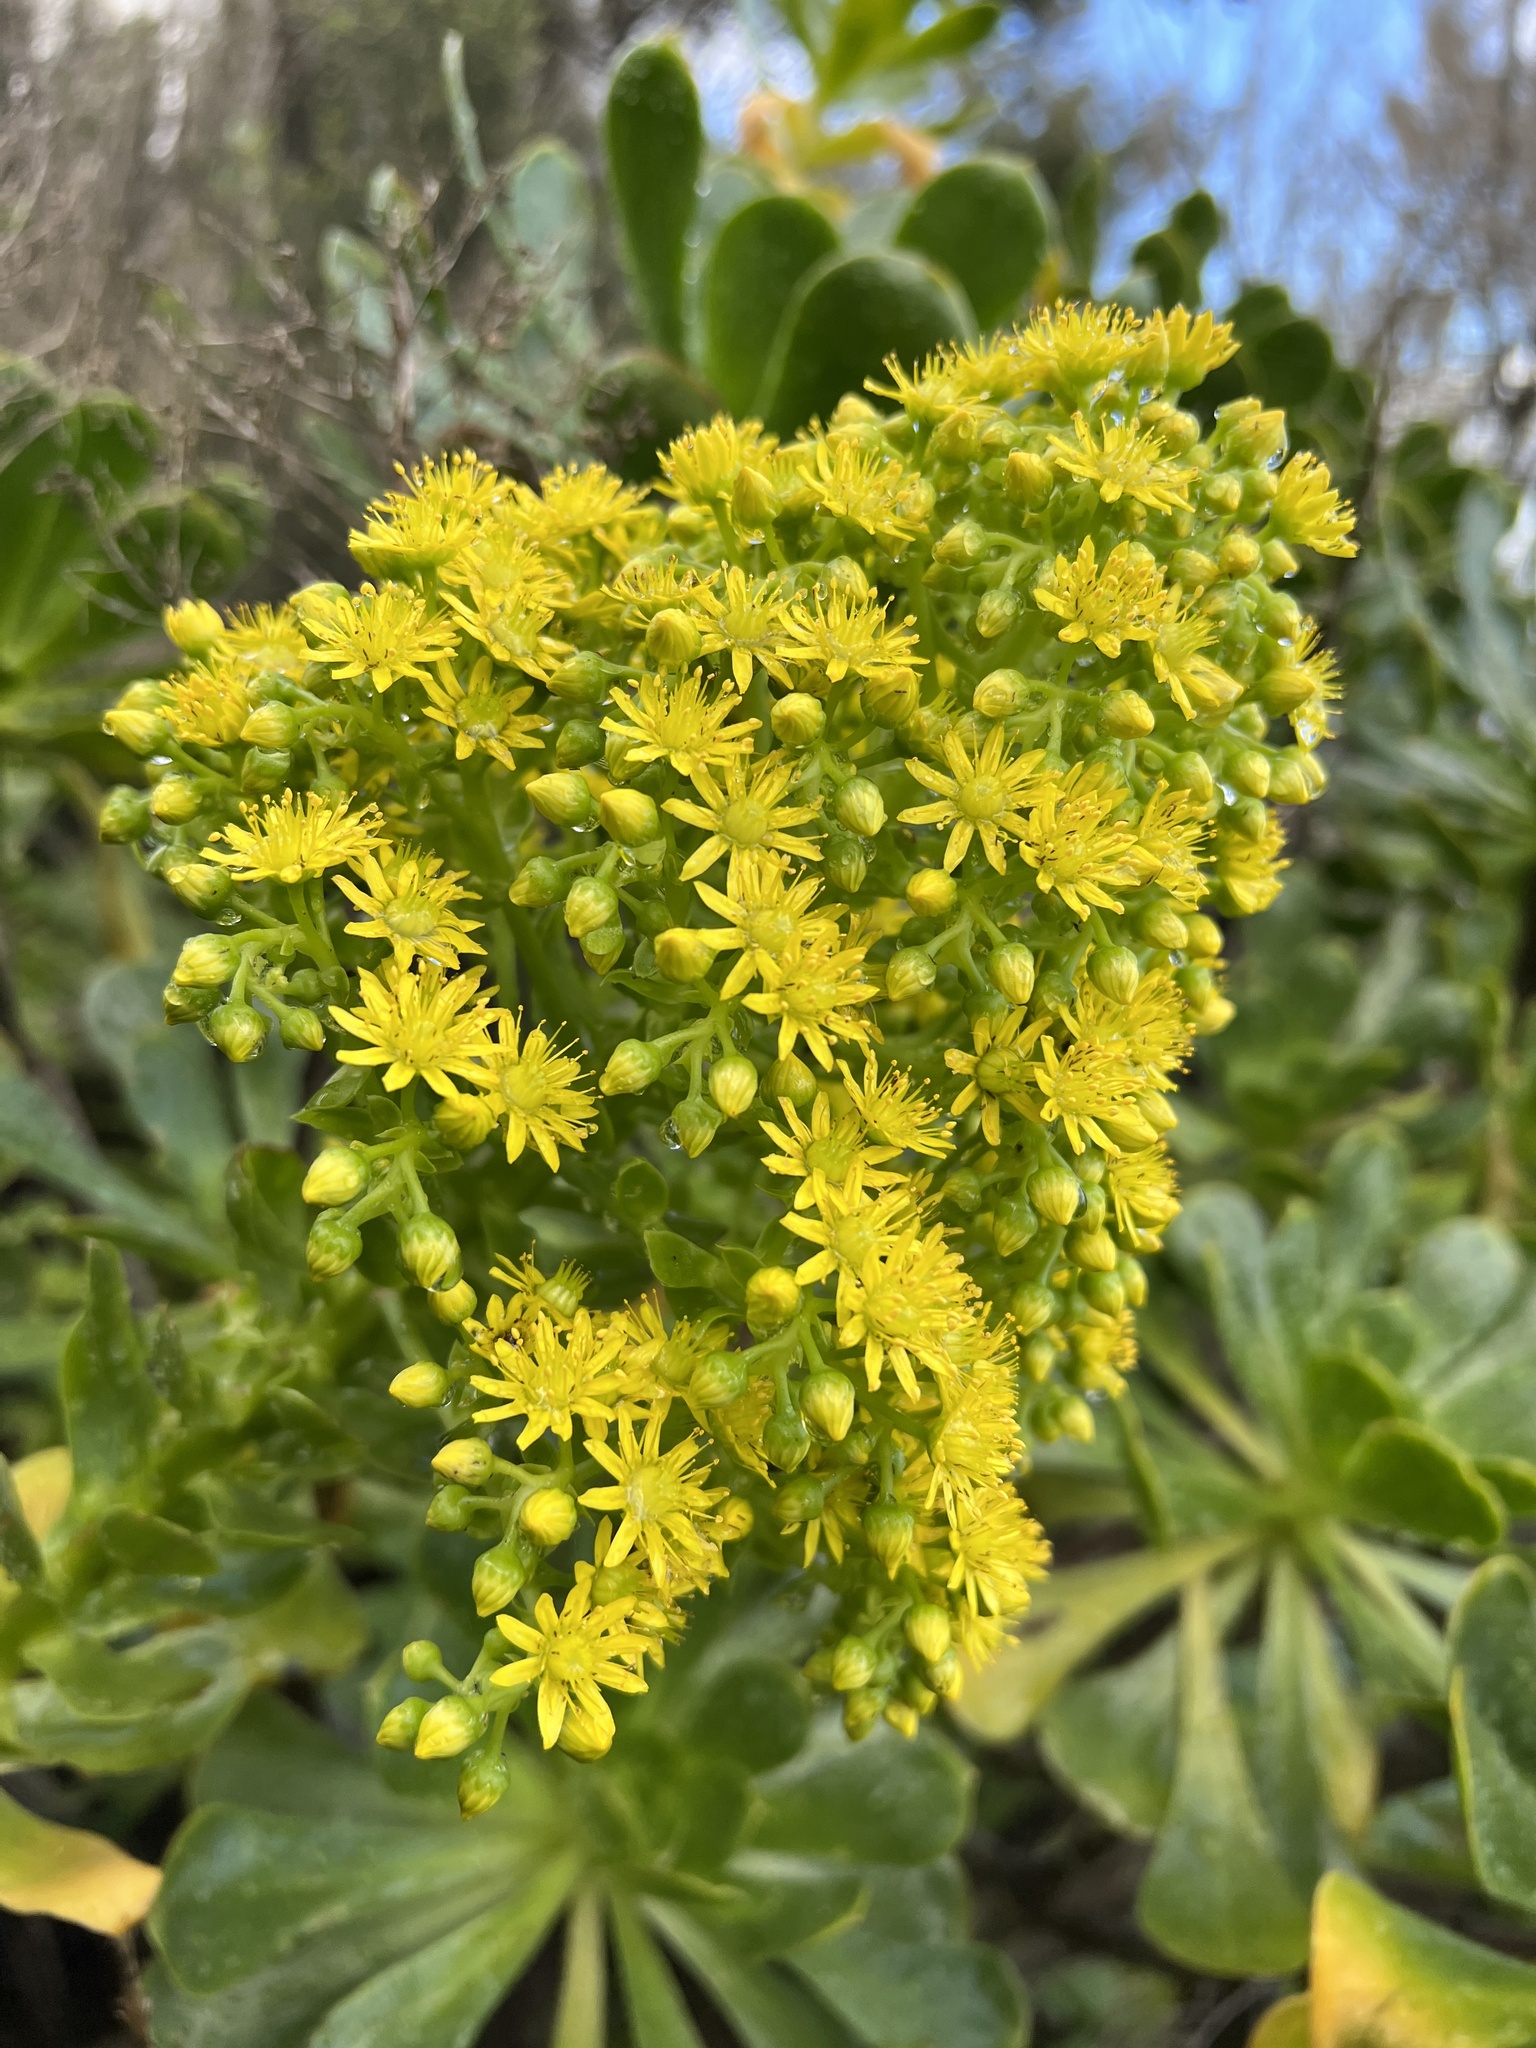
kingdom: Plantae
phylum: Tracheophyta
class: Magnoliopsida
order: Saxifragales
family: Crassulaceae
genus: Aeonium
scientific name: Aeonium arboreum
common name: Tree aeonium
